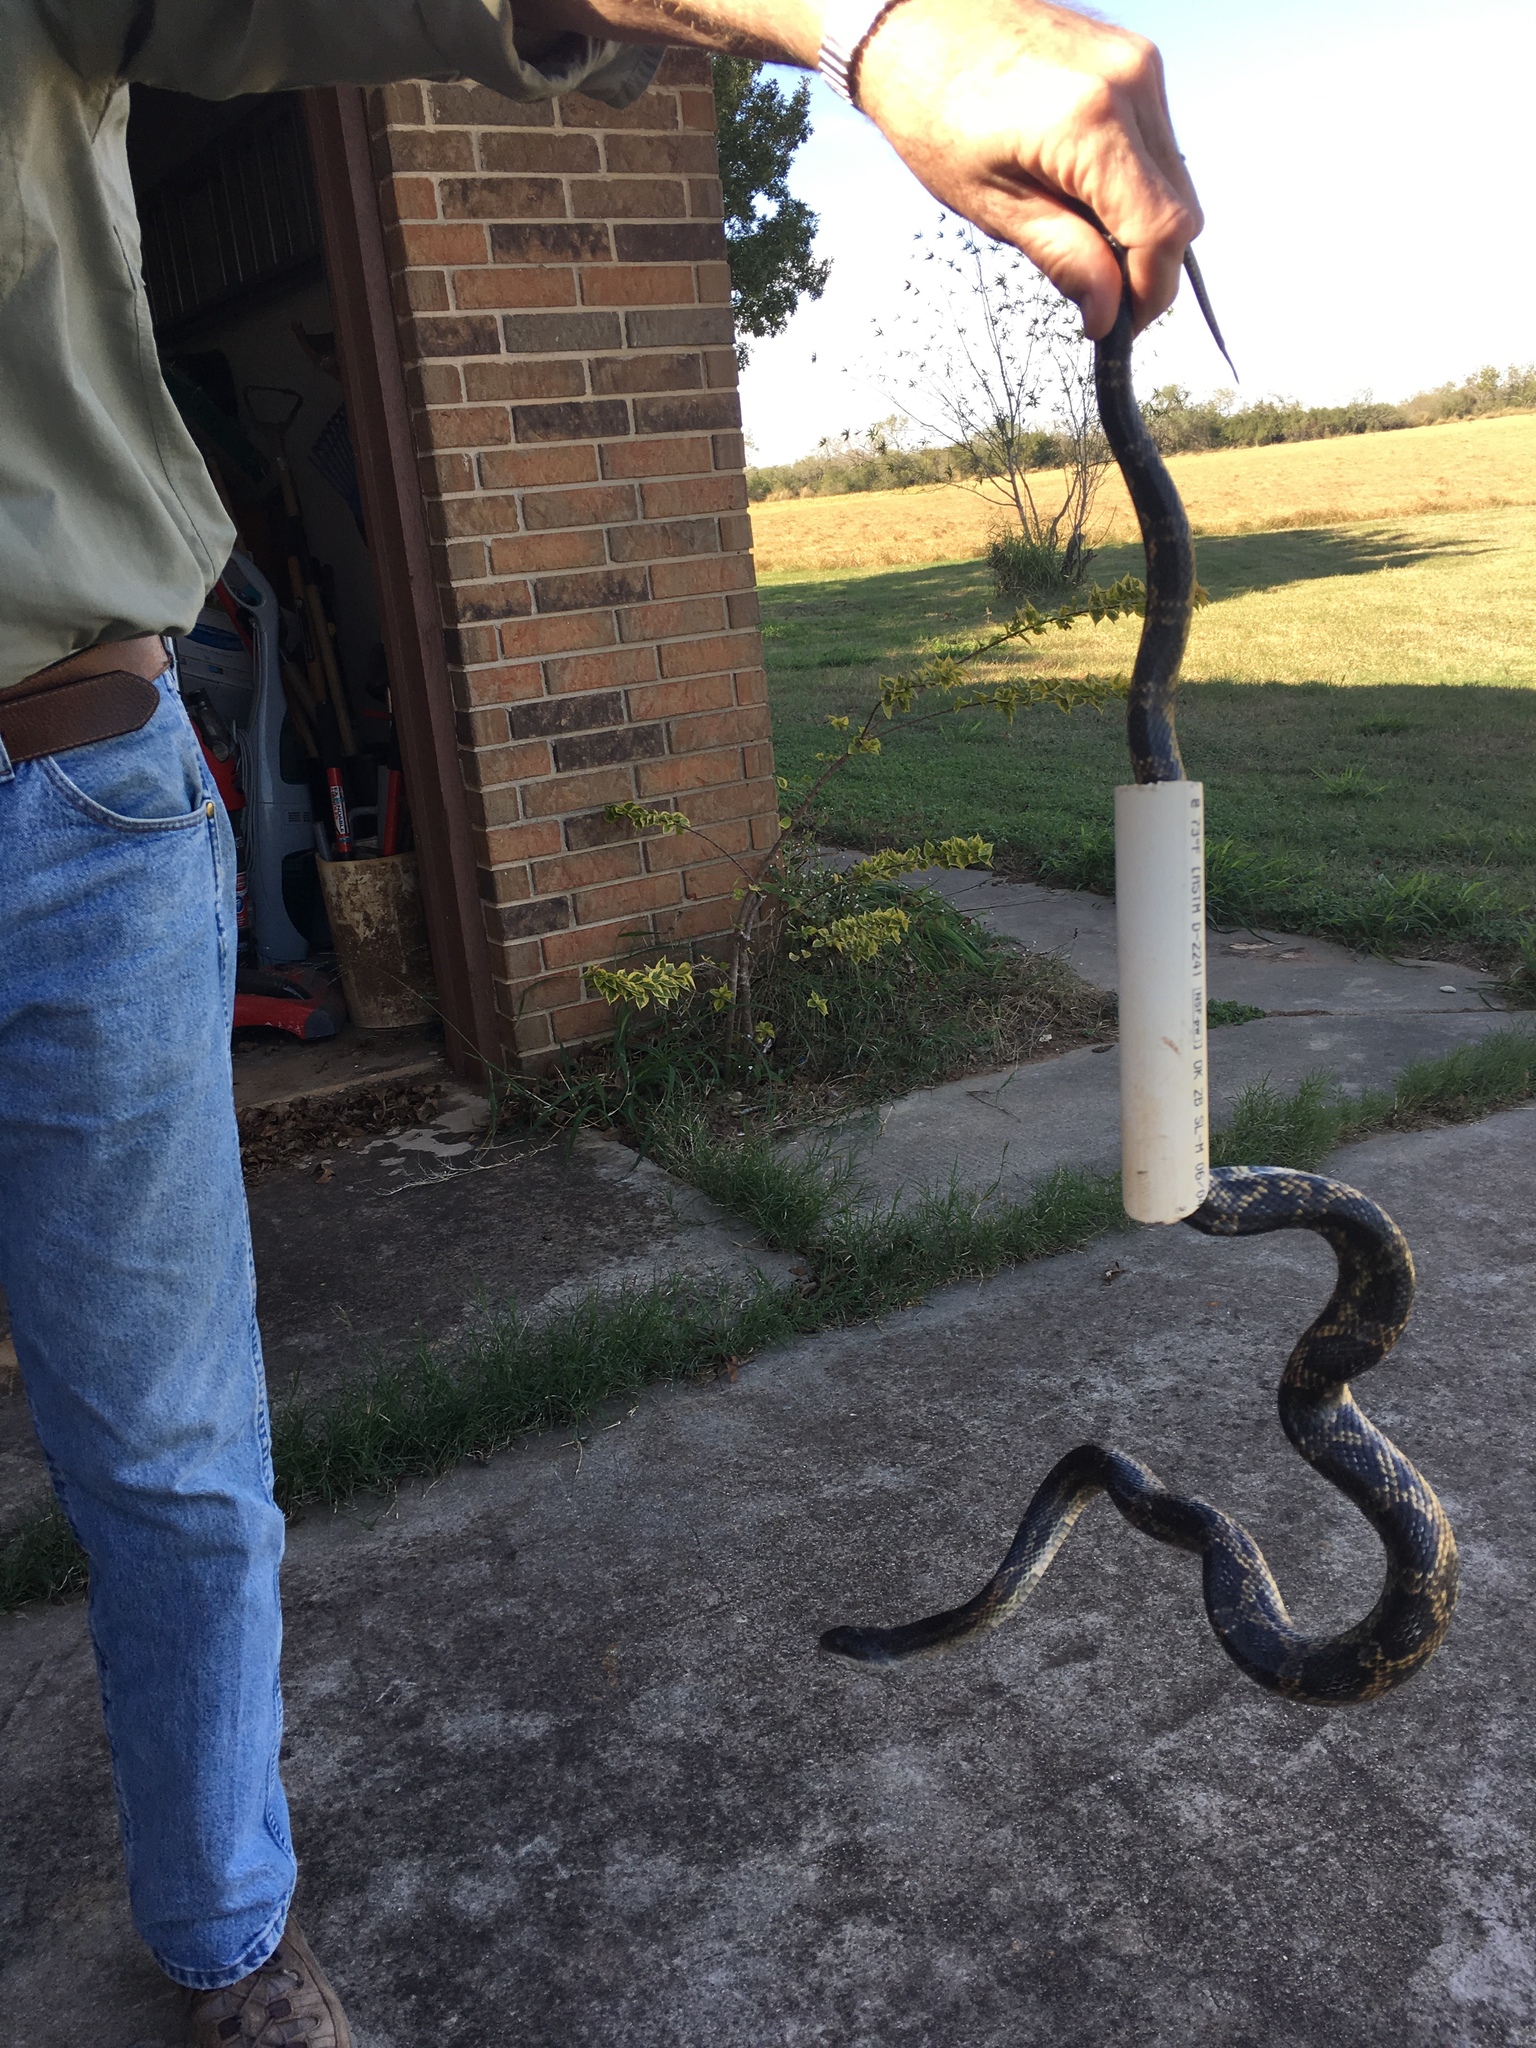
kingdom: Animalia
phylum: Chordata
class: Squamata
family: Colubridae
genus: Pantherophis
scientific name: Pantherophis obsoletus
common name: Black rat snake
